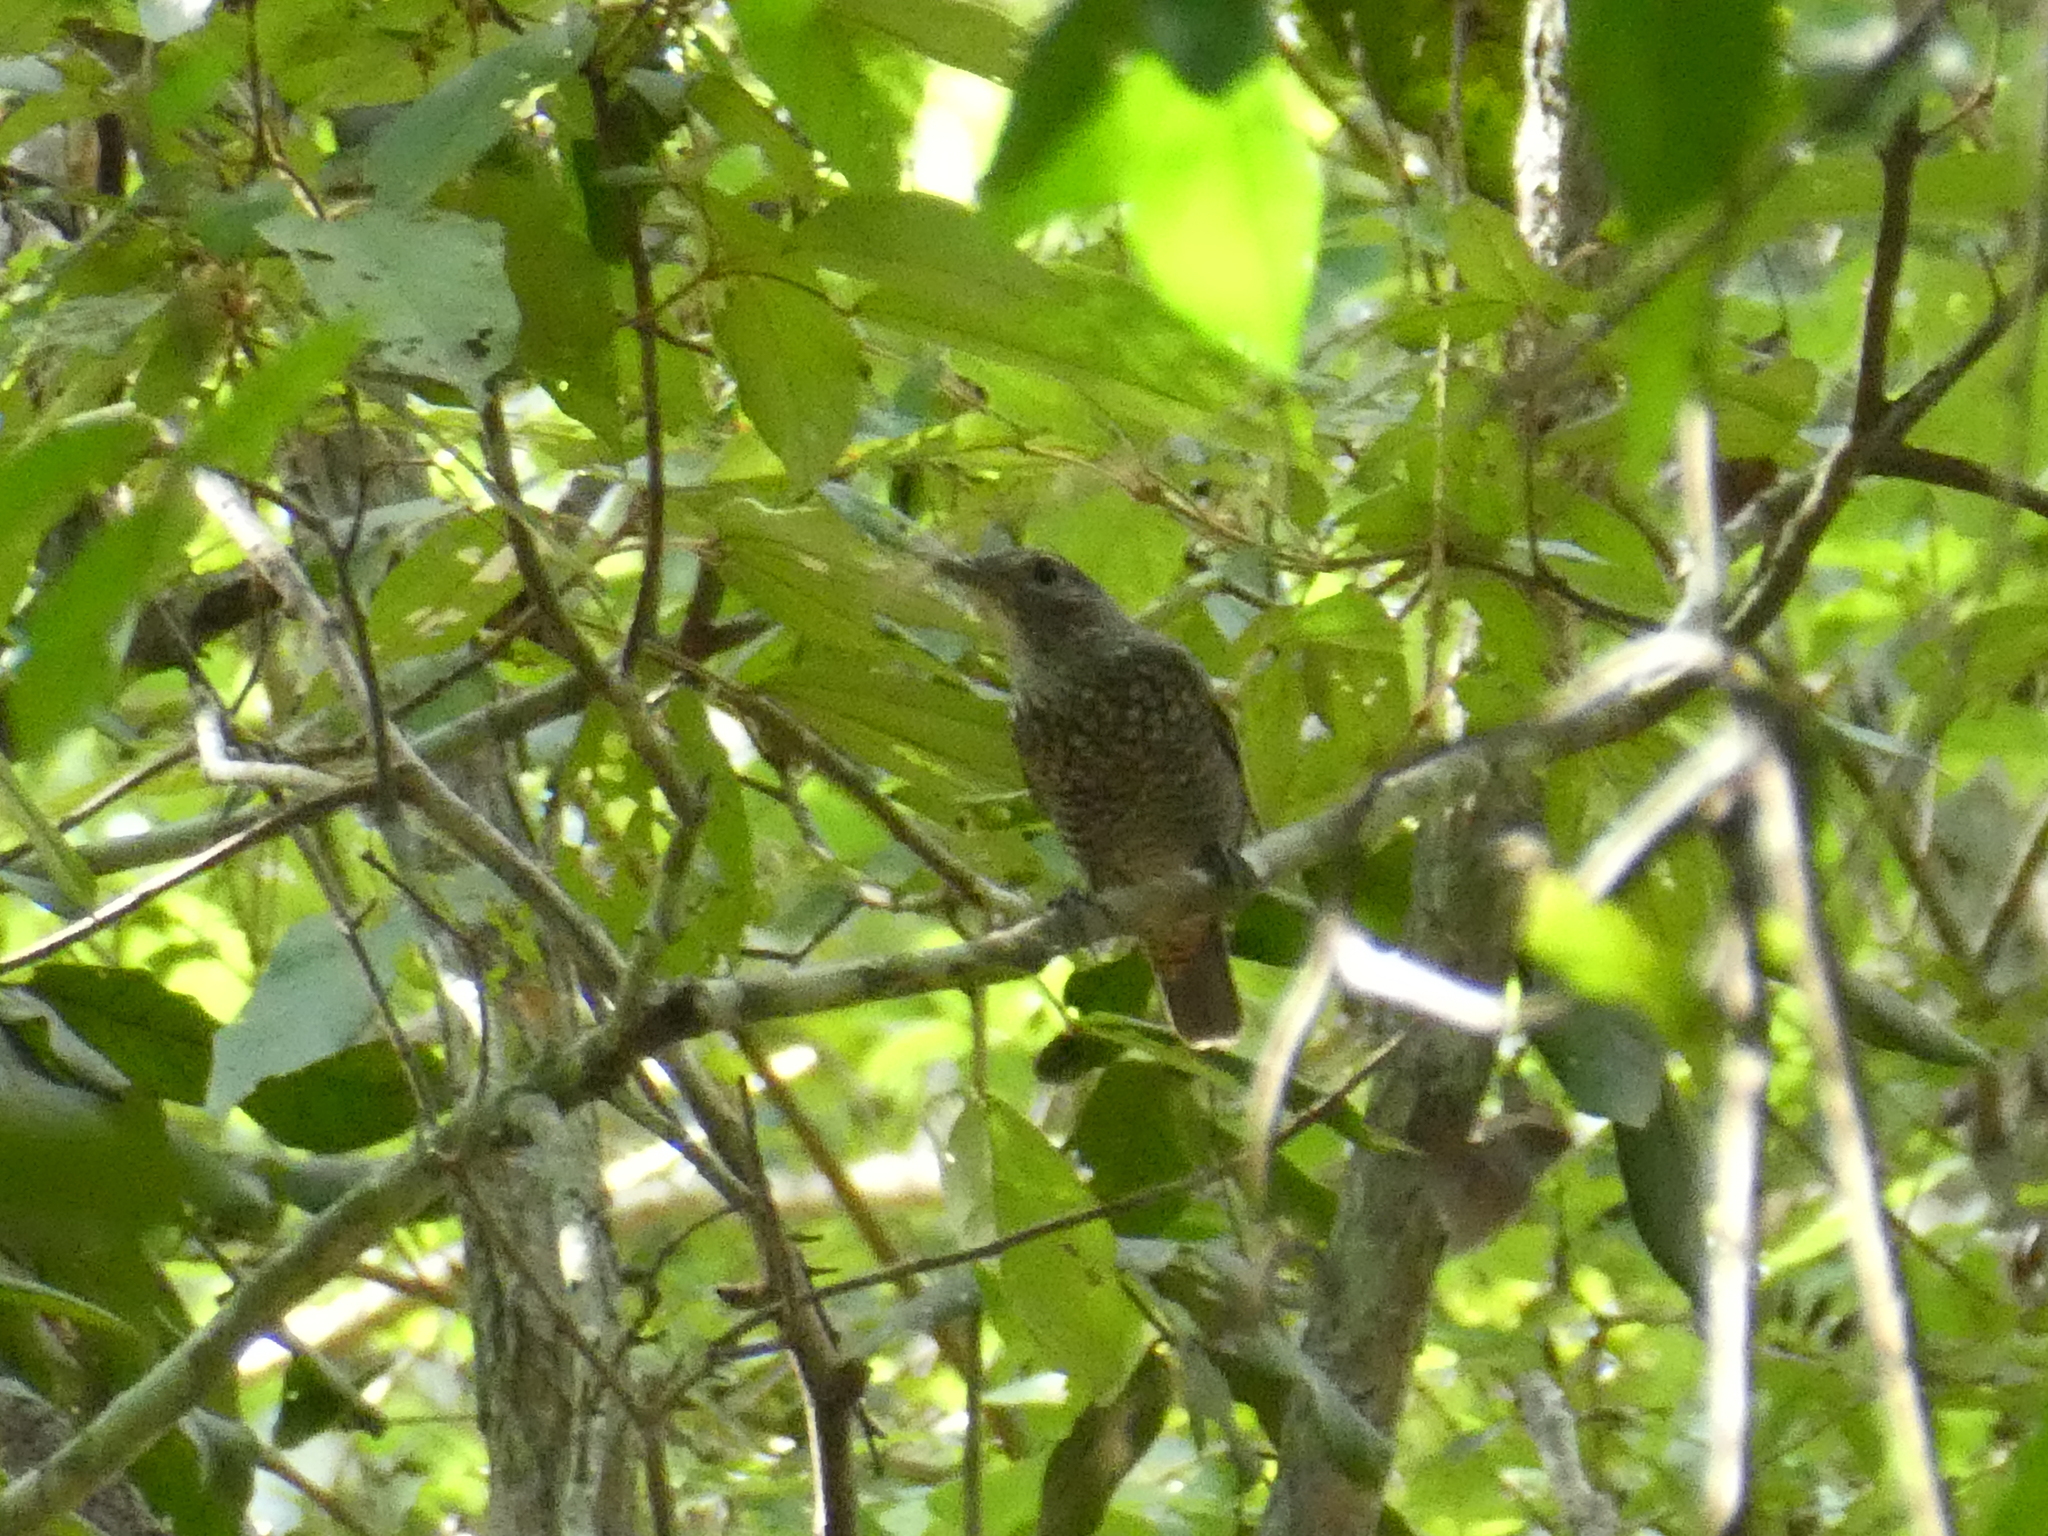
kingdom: Animalia
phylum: Chordata
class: Aves
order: Passeriformes
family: Muscicapidae
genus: Monticola
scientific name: Monticola solitarius
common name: Blue rock thrush
